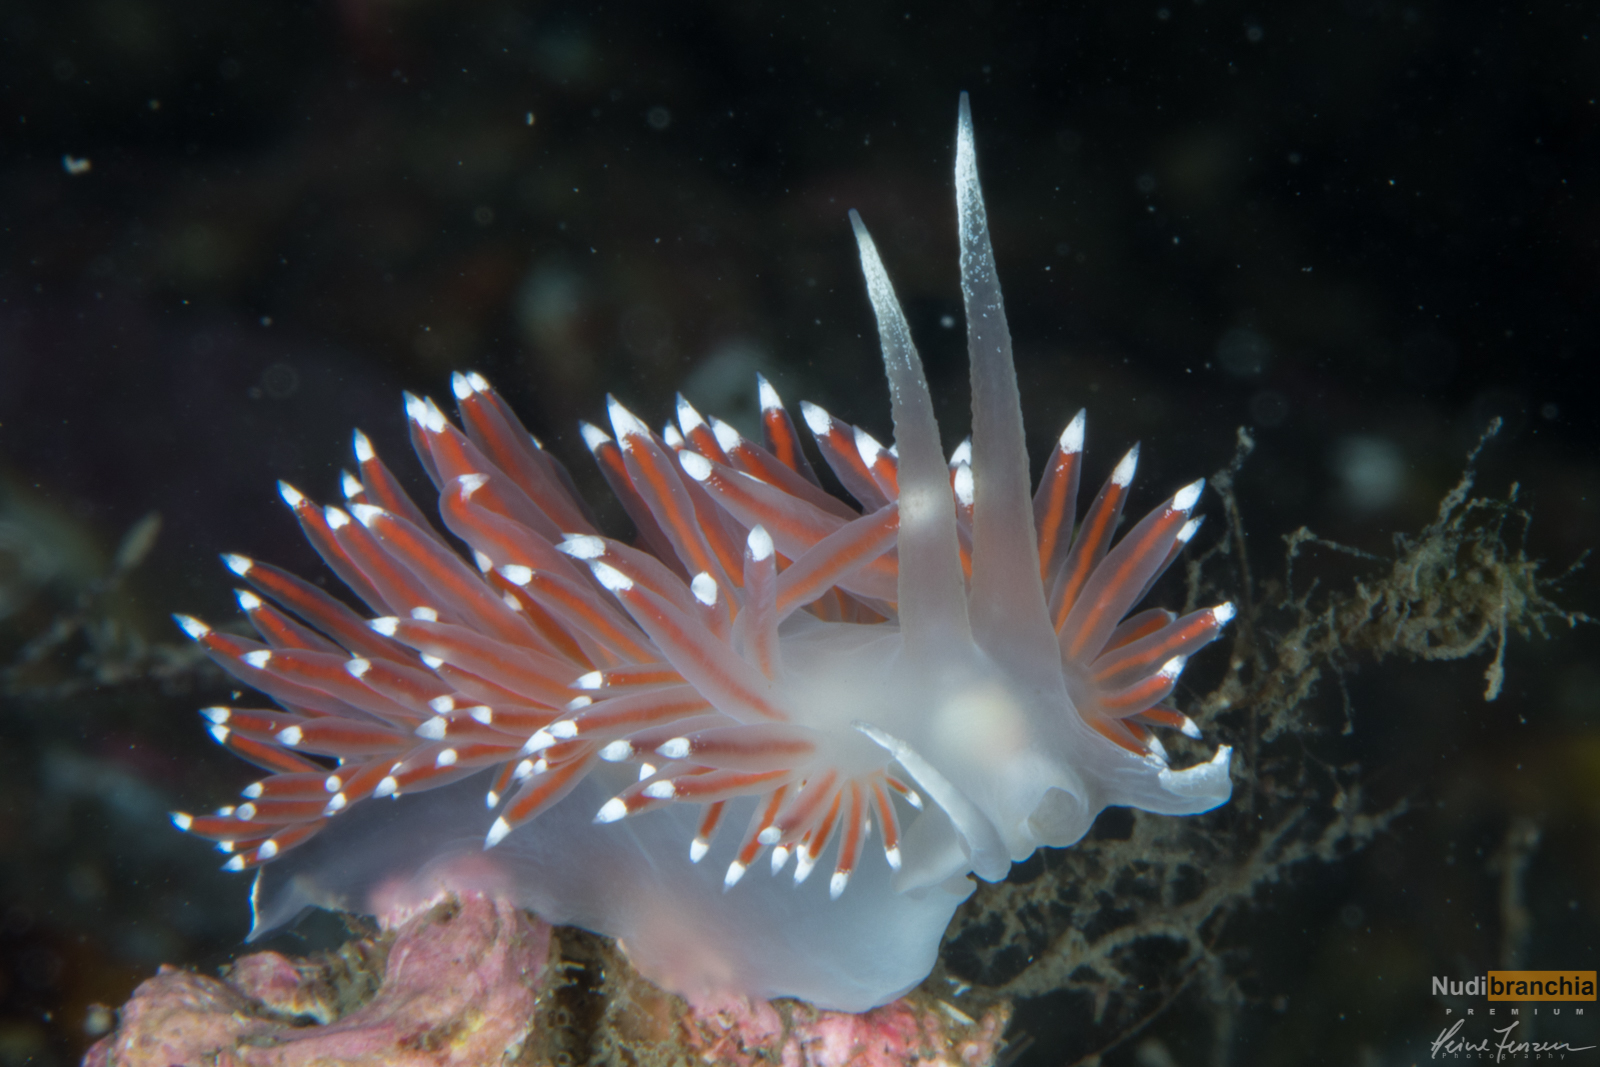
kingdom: Animalia
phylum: Mollusca
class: Gastropoda
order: Nudibranchia
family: Coryphellidae
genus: Coryphella
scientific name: Coryphella browni
